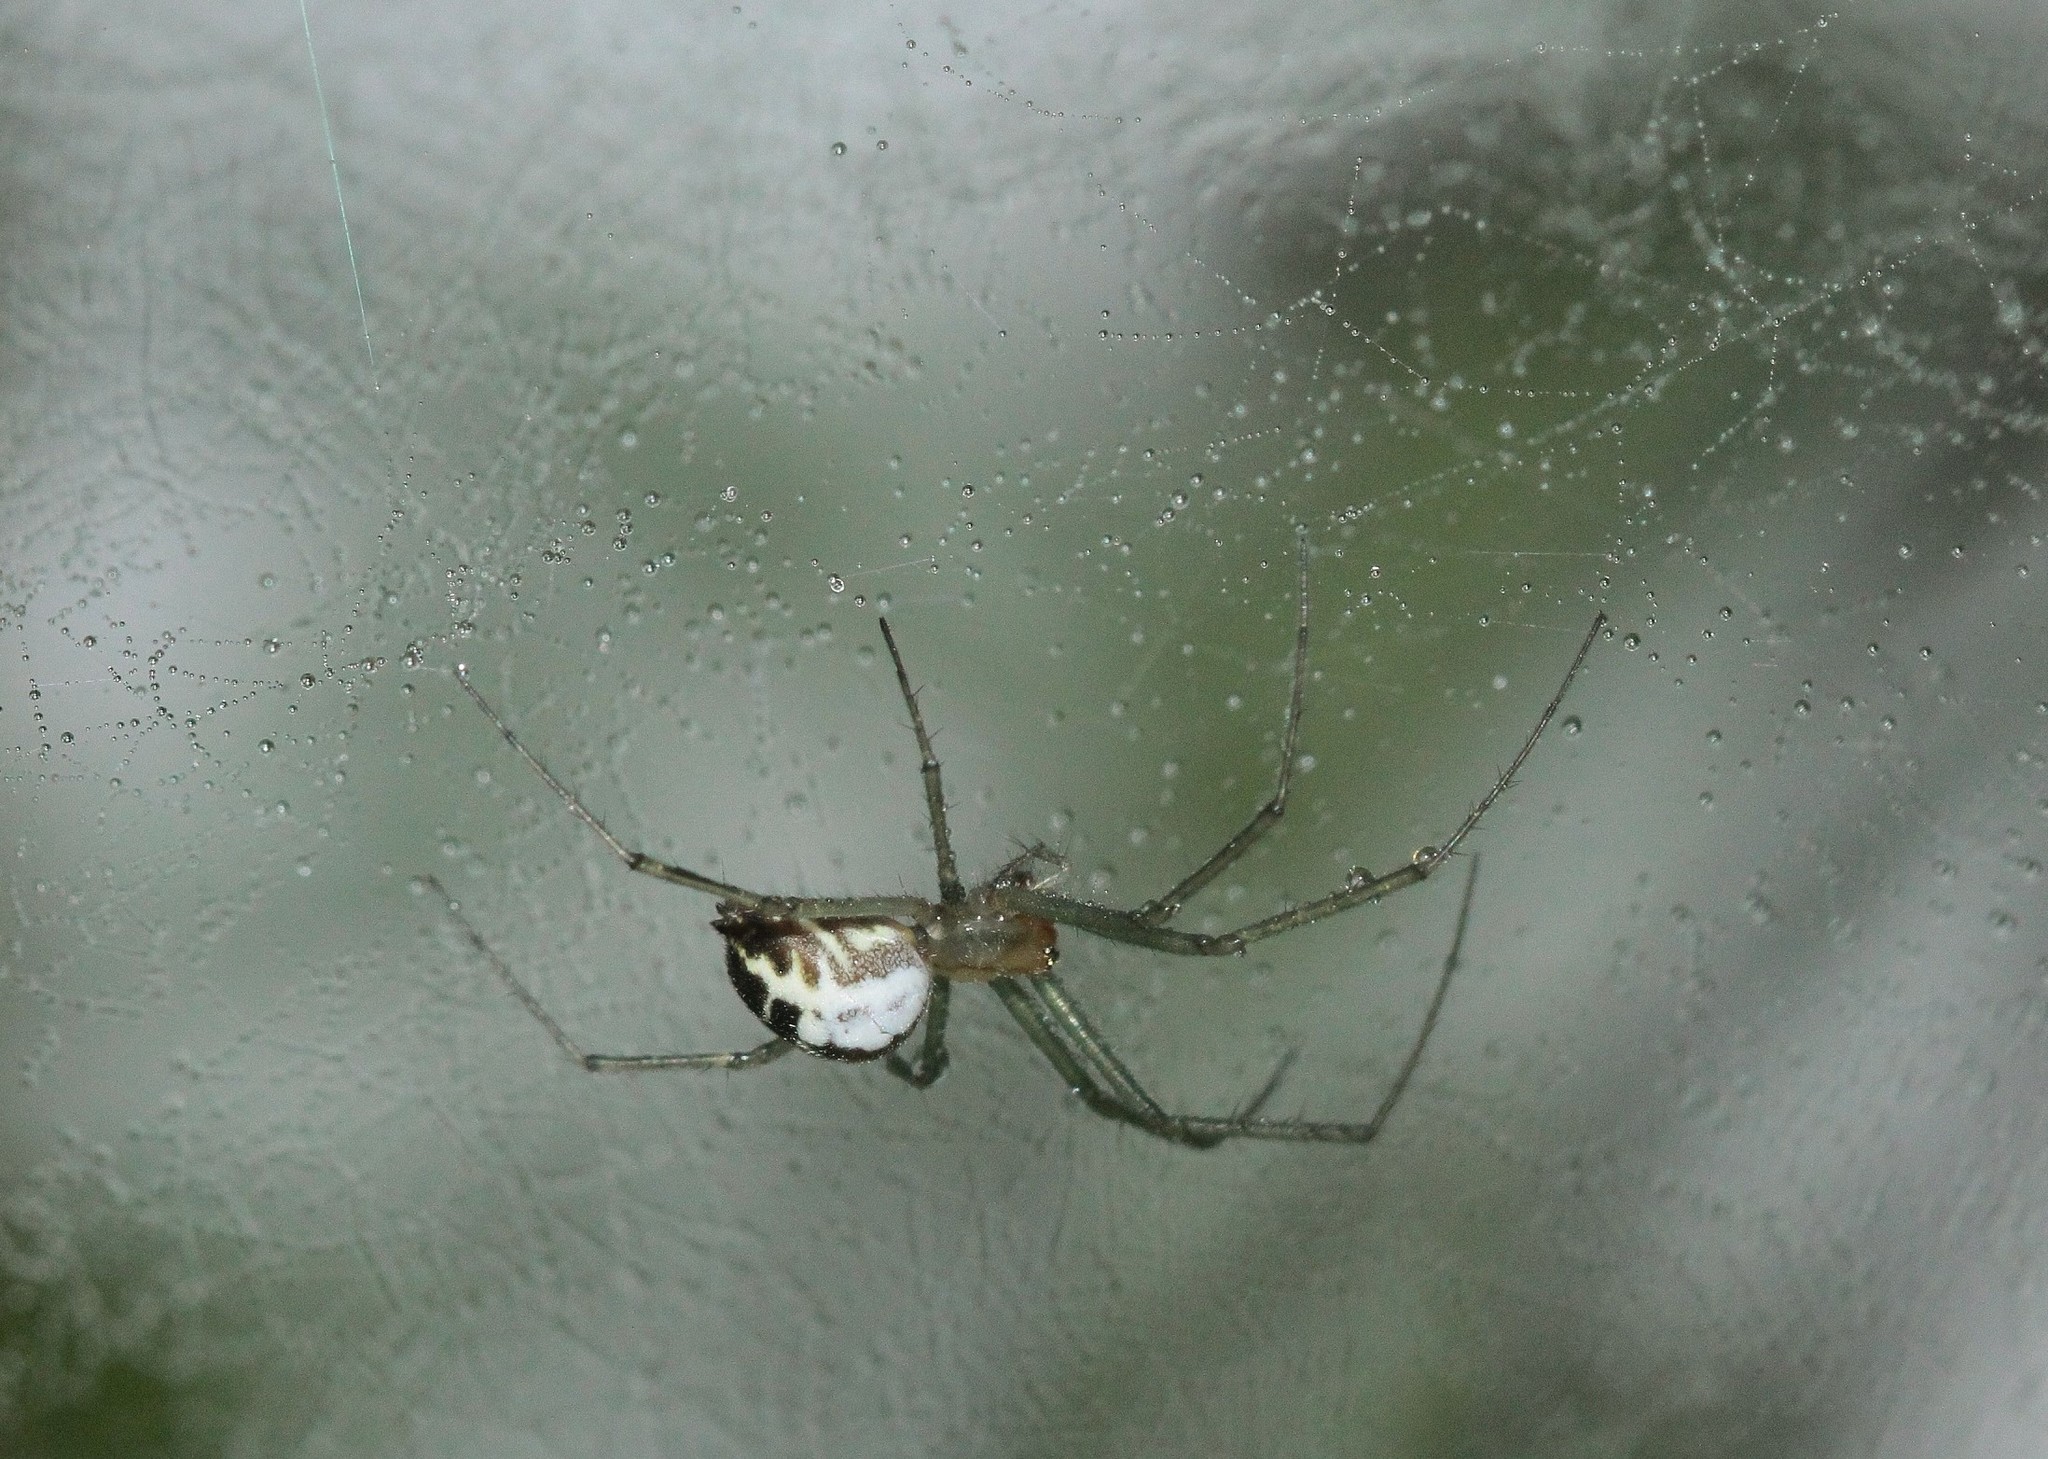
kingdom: Animalia
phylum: Arthropoda
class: Arachnida
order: Araneae
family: Linyphiidae
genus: Neriene
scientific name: Neriene emphana
